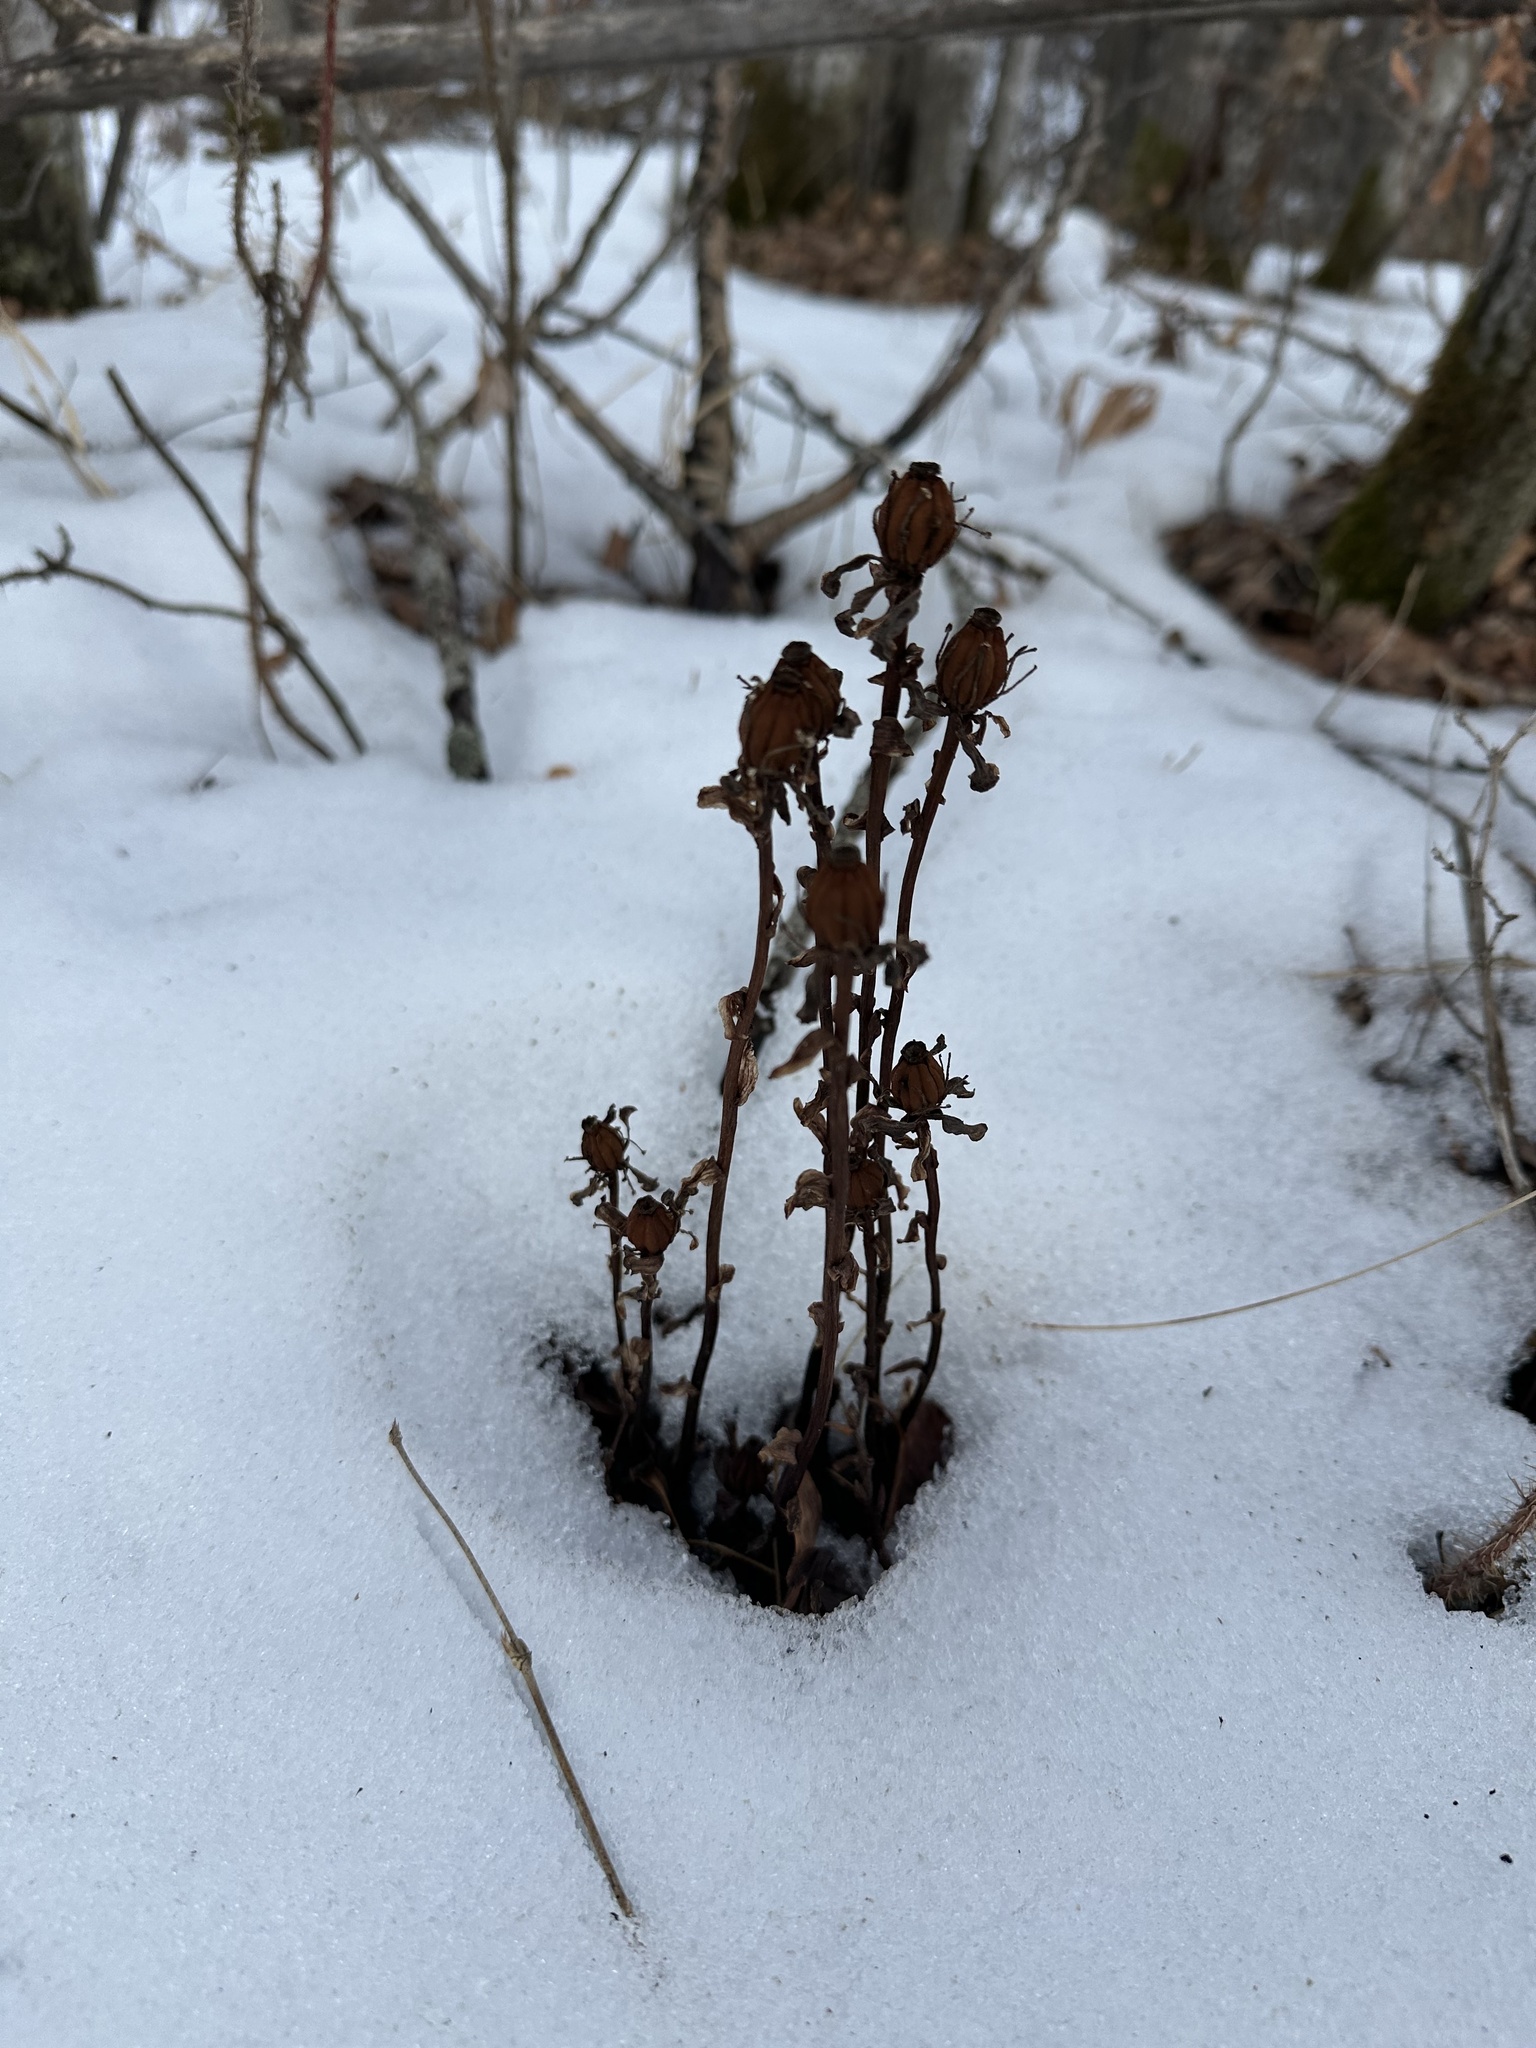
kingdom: Plantae
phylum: Tracheophyta
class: Magnoliopsida
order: Ericales
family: Ericaceae
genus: Monotropa
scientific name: Monotropa uniflora
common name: Convulsion root
